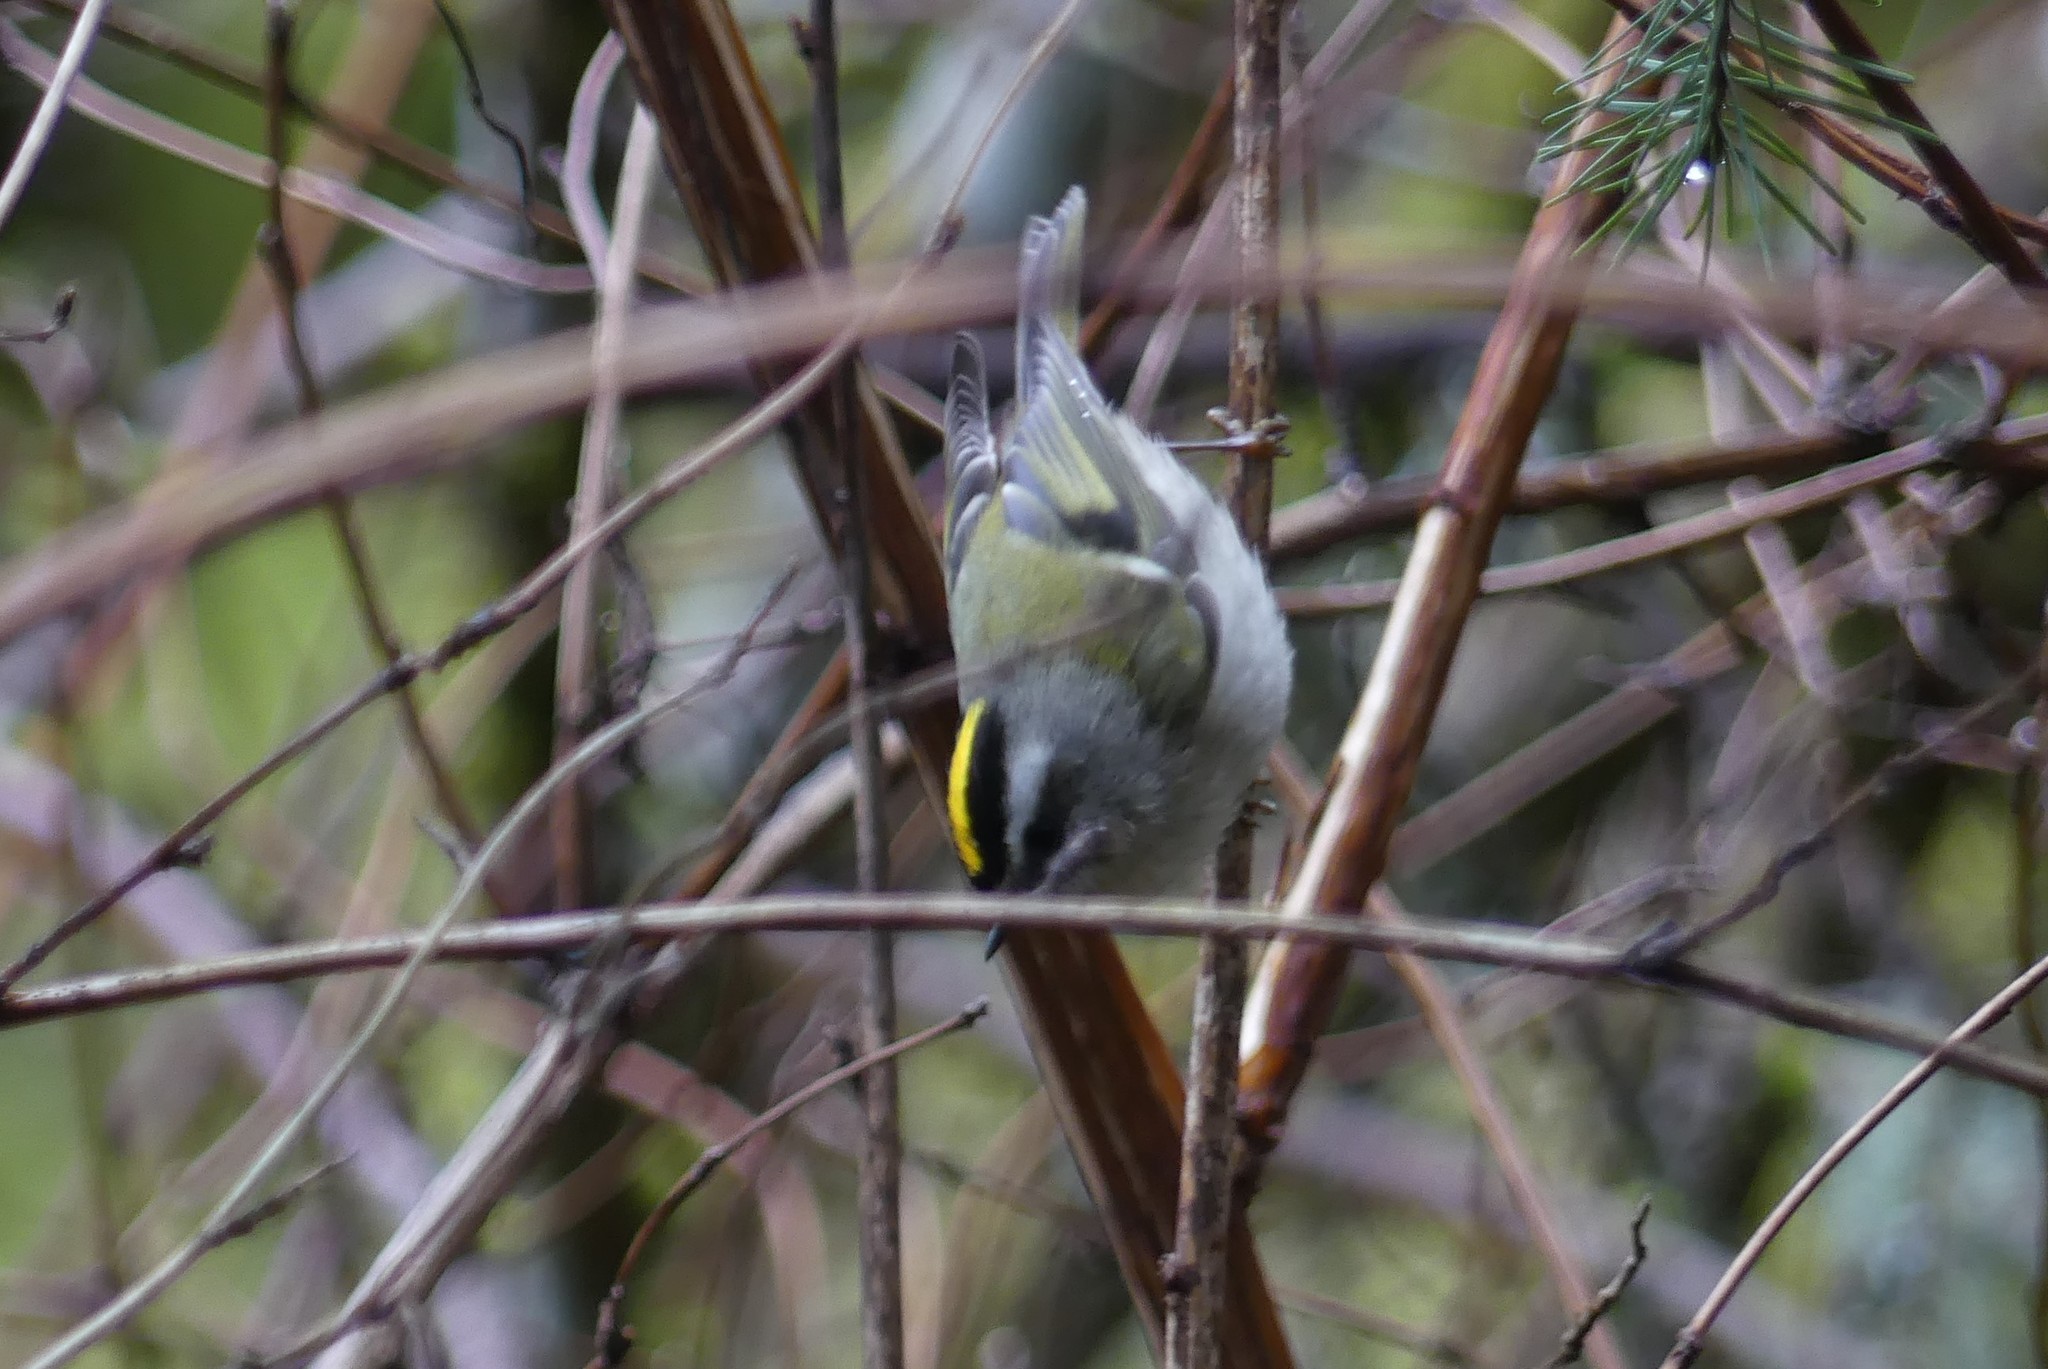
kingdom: Animalia
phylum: Chordata
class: Aves
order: Passeriformes
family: Regulidae
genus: Regulus
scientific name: Regulus satrapa
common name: Golden-crowned kinglet
